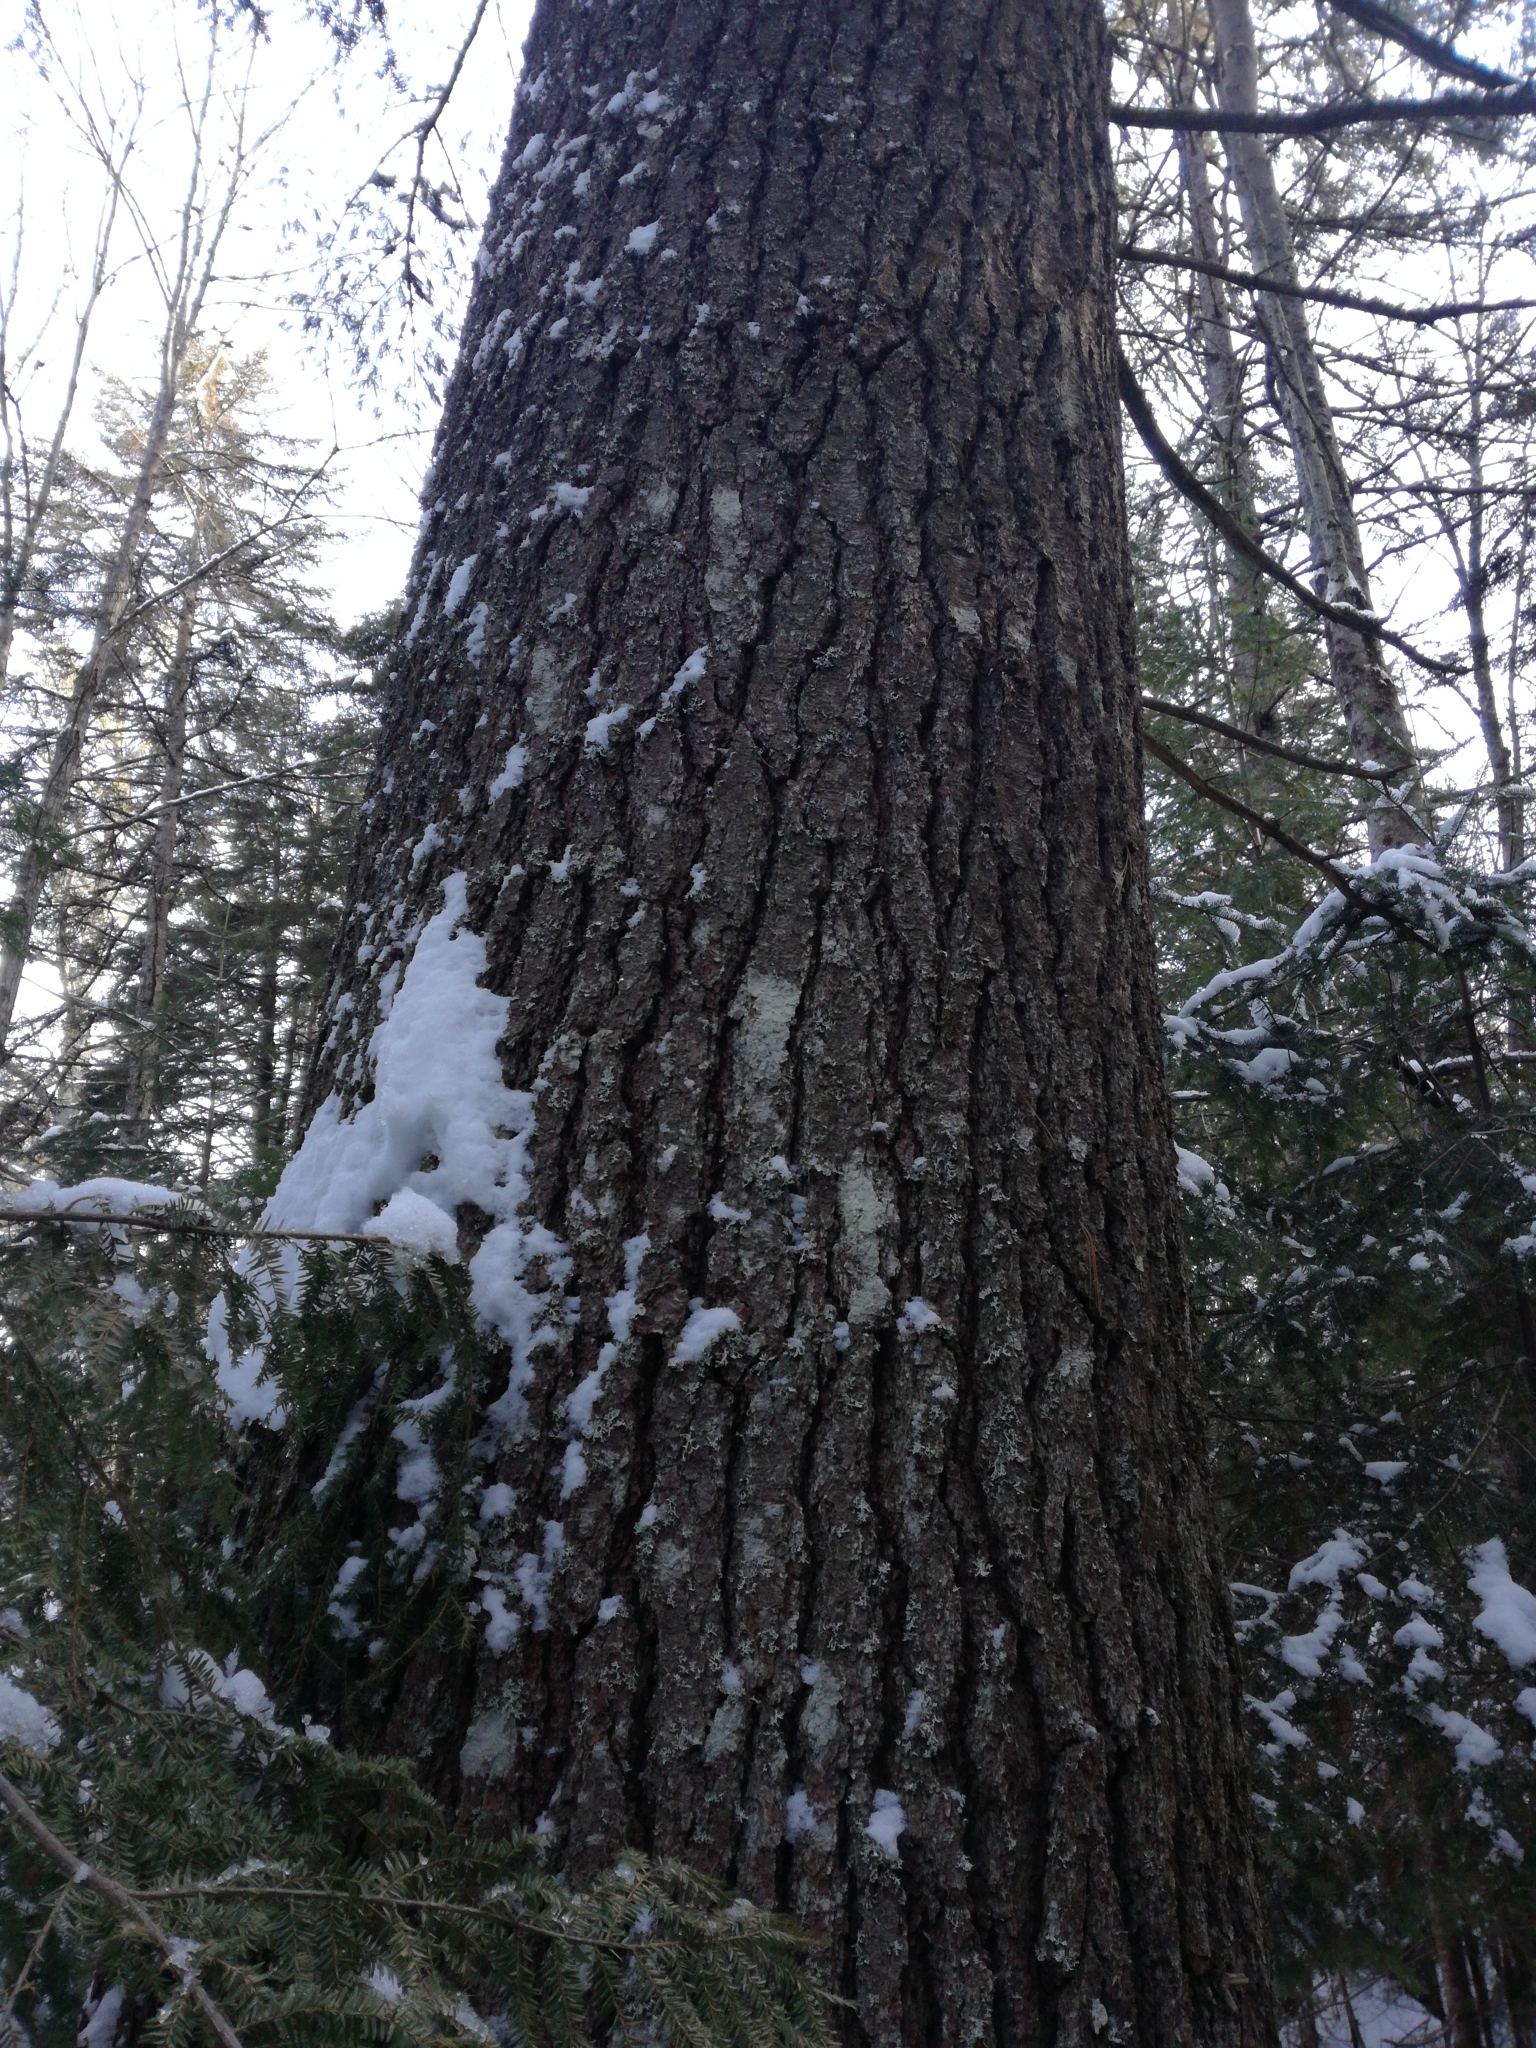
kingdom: Plantae
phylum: Tracheophyta
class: Pinopsida
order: Pinales
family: Pinaceae
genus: Pinus
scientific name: Pinus strobus
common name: Weymouth pine
